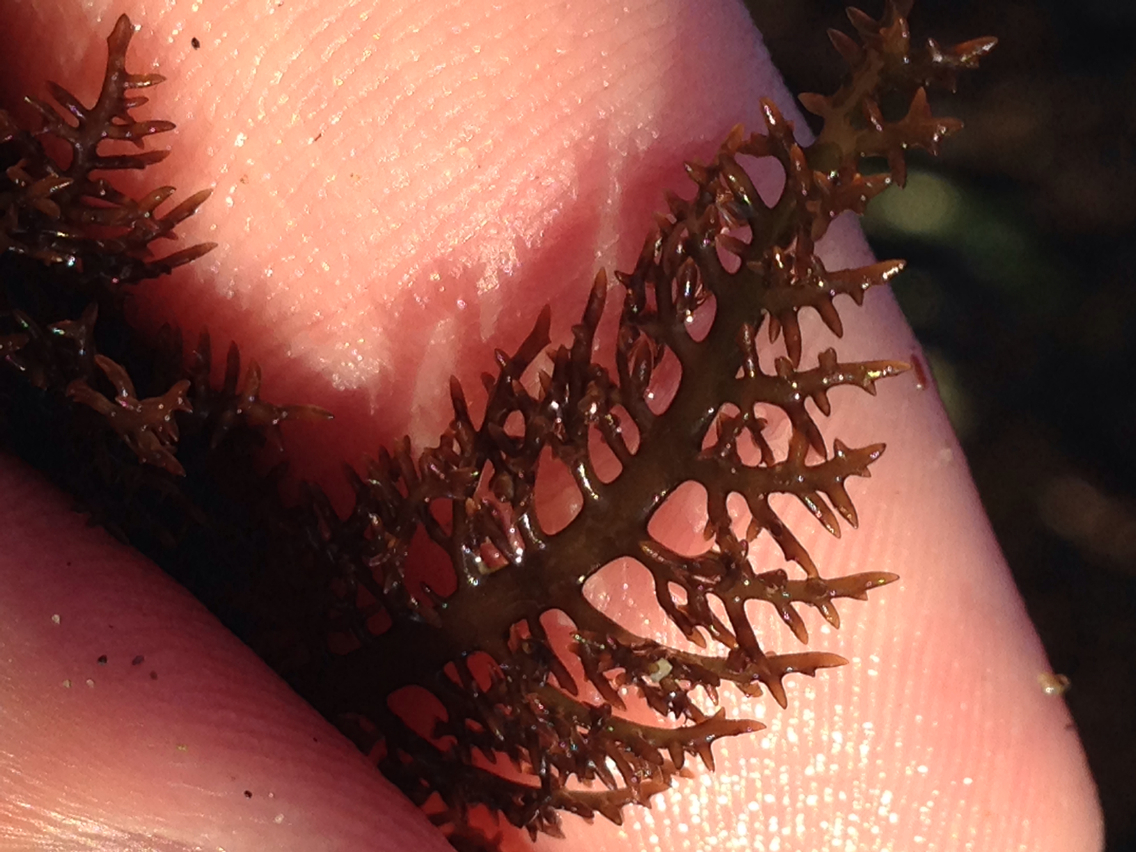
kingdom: Plantae
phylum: Rhodophyta
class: Florideophyceae
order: Gigartinales
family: Gigartinaceae
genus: Chondracanthus
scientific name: Chondracanthus canaliculatus
